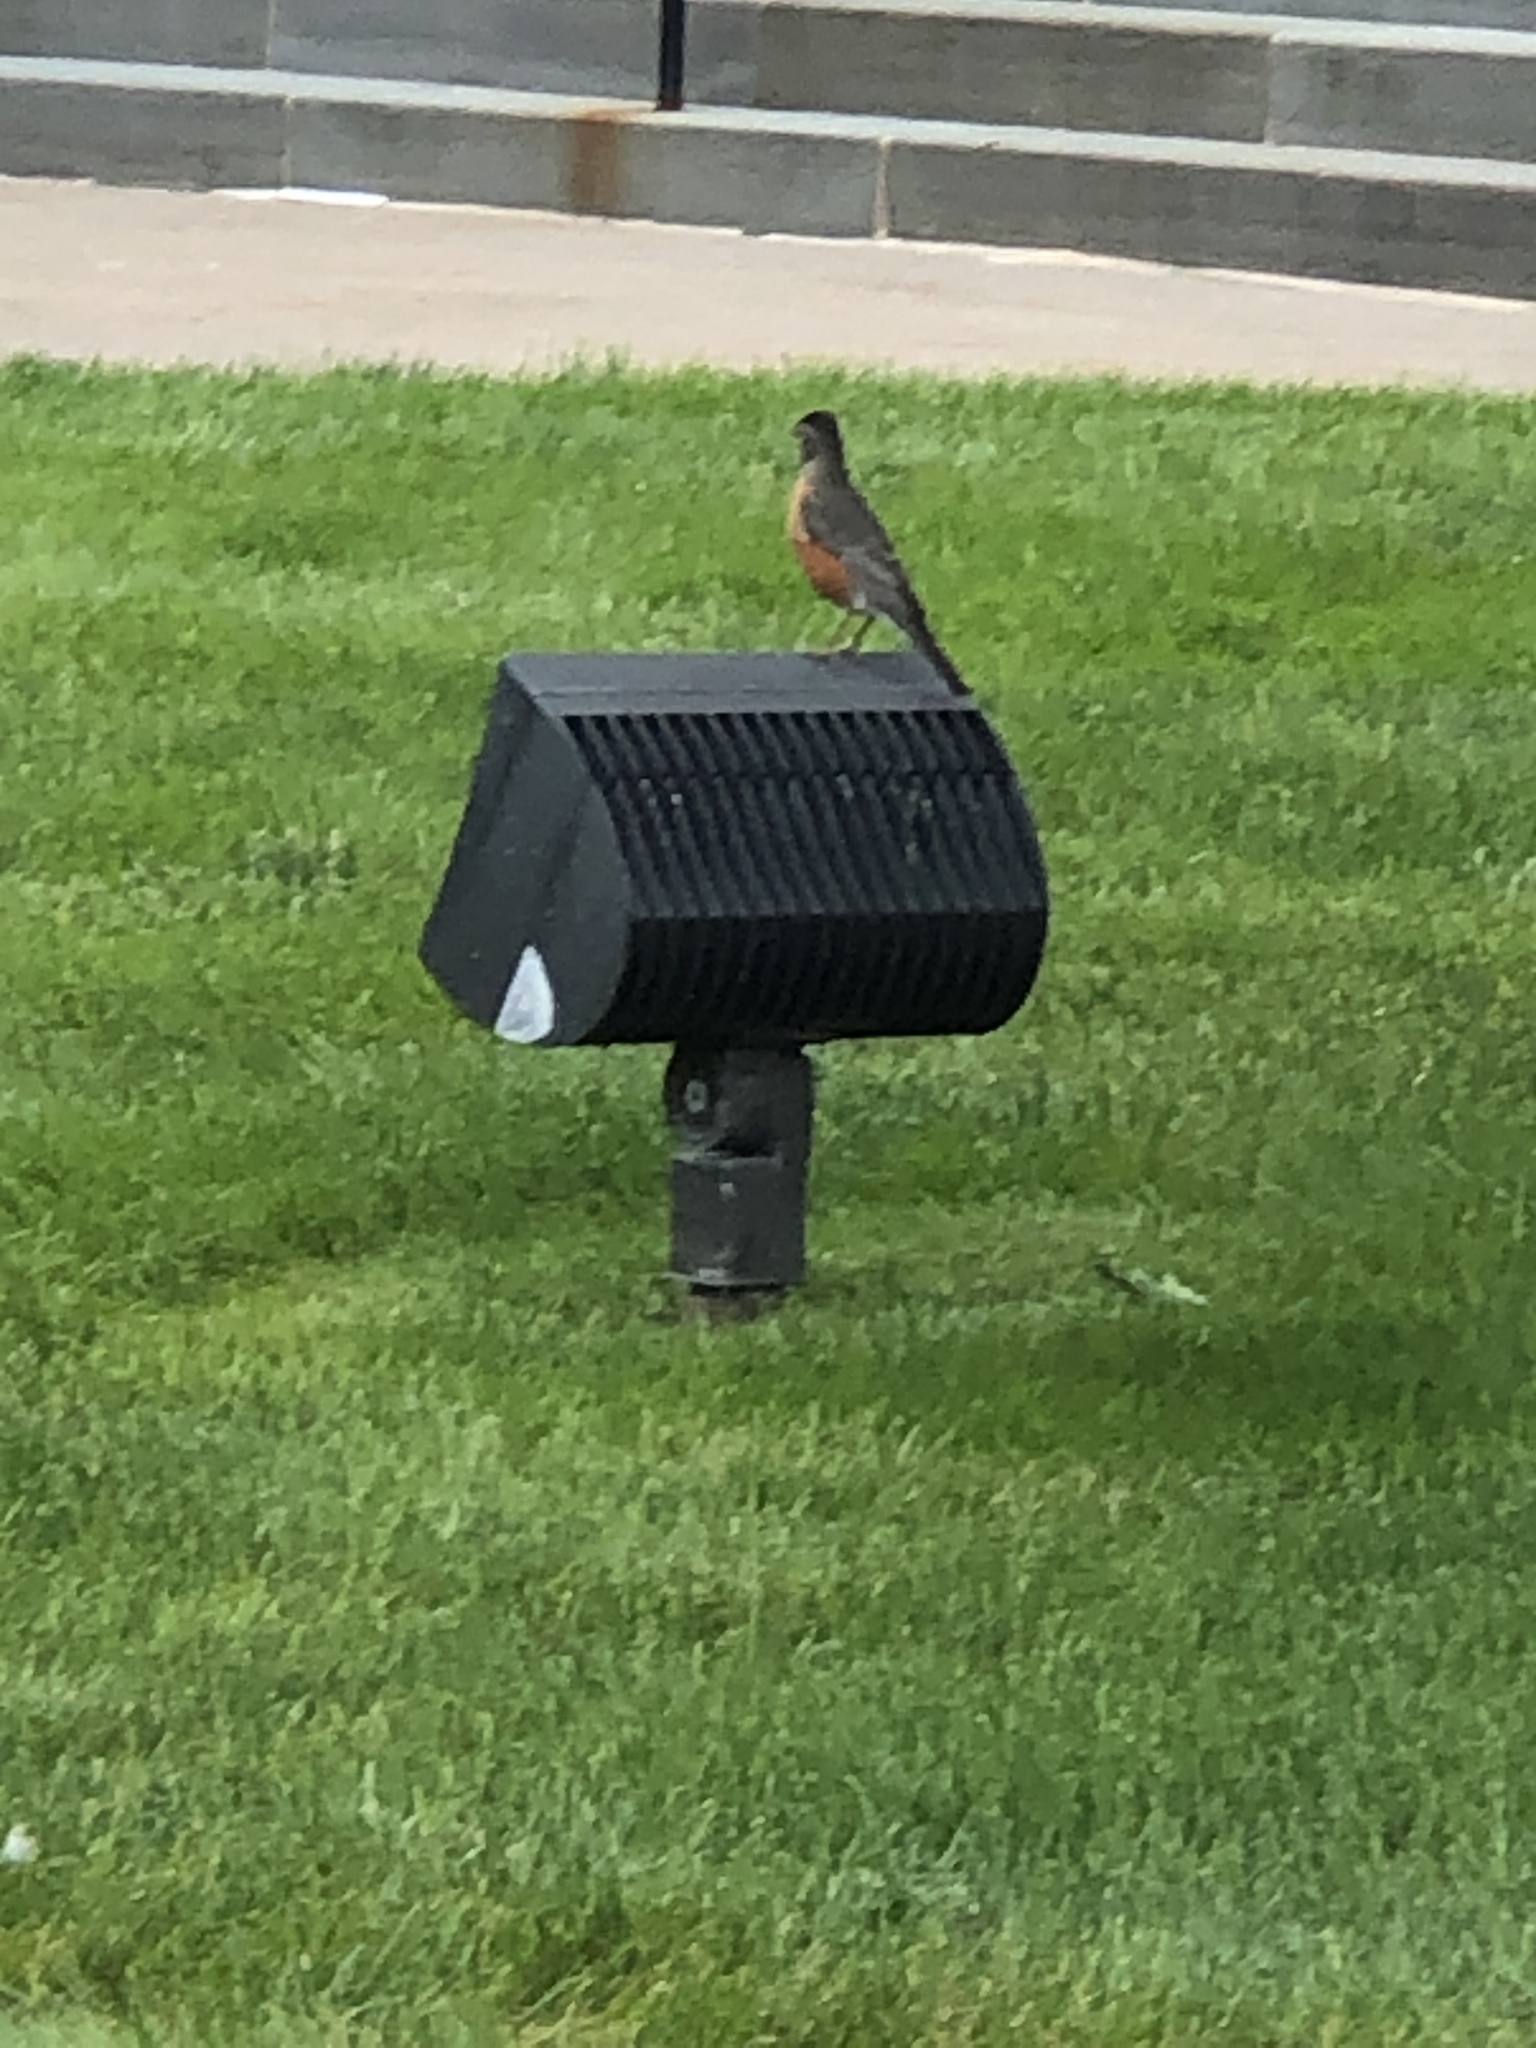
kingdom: Animalia
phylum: Chordata
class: Aves
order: Passeriformes
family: Turdidae
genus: Turdus
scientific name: Turdus migratorius
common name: American robin
